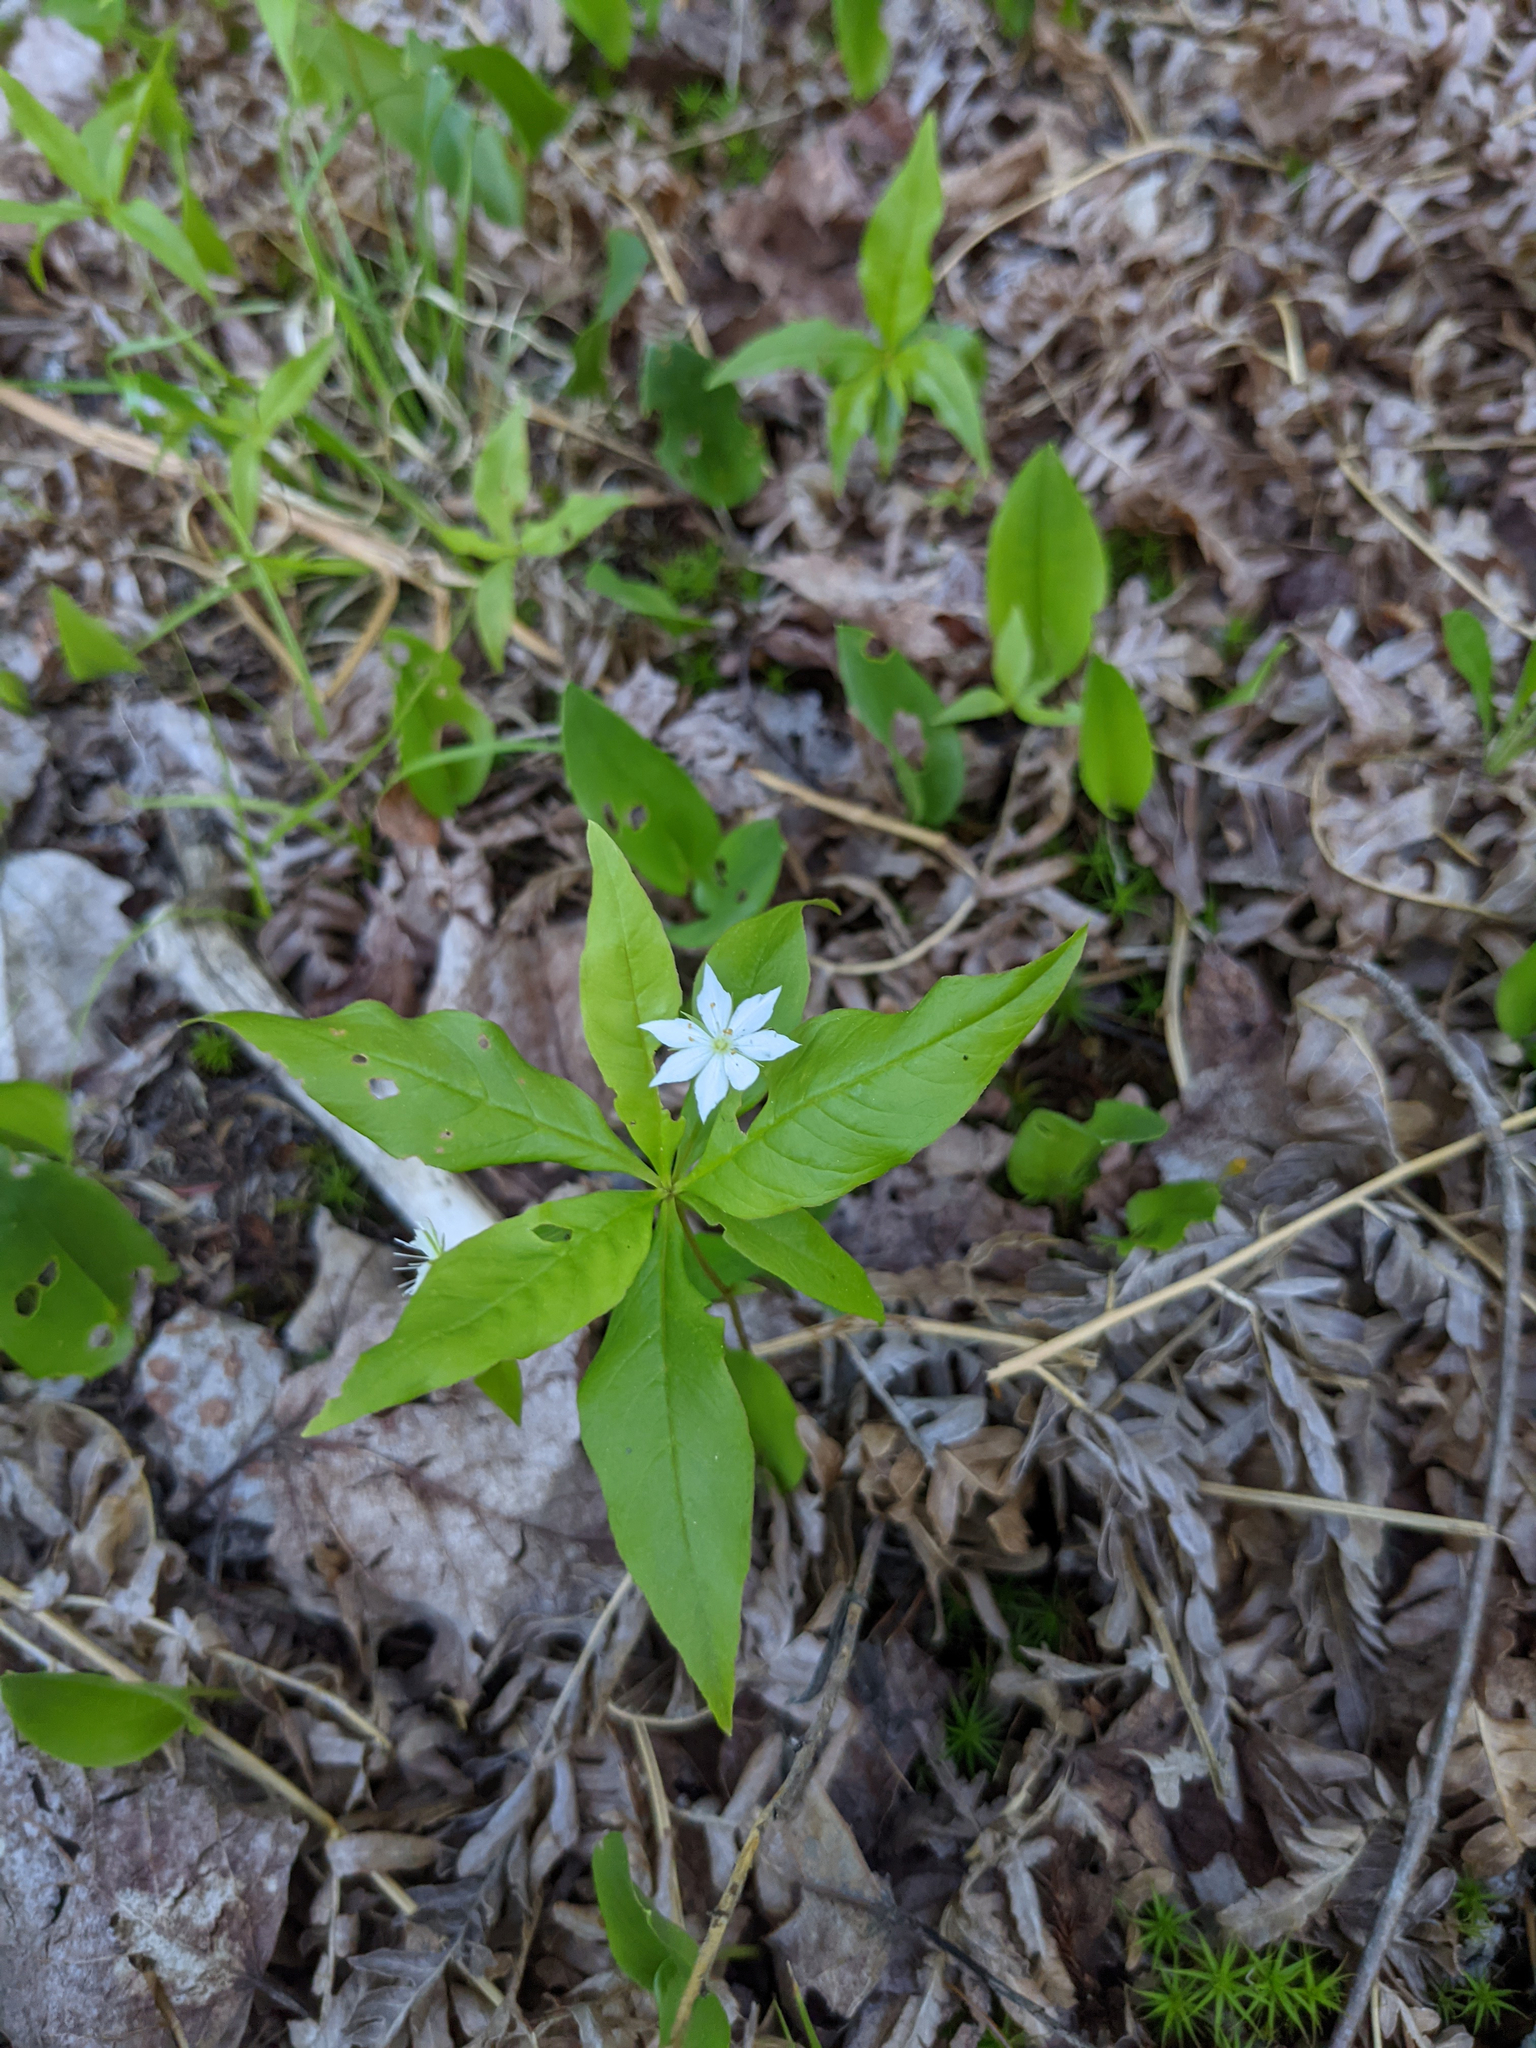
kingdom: Plantae
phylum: Tracheophyta
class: Magnoliopsida
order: Ericales
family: Primulaceae
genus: Lysimachia
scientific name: Lysimachia borealis
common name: American starflower
